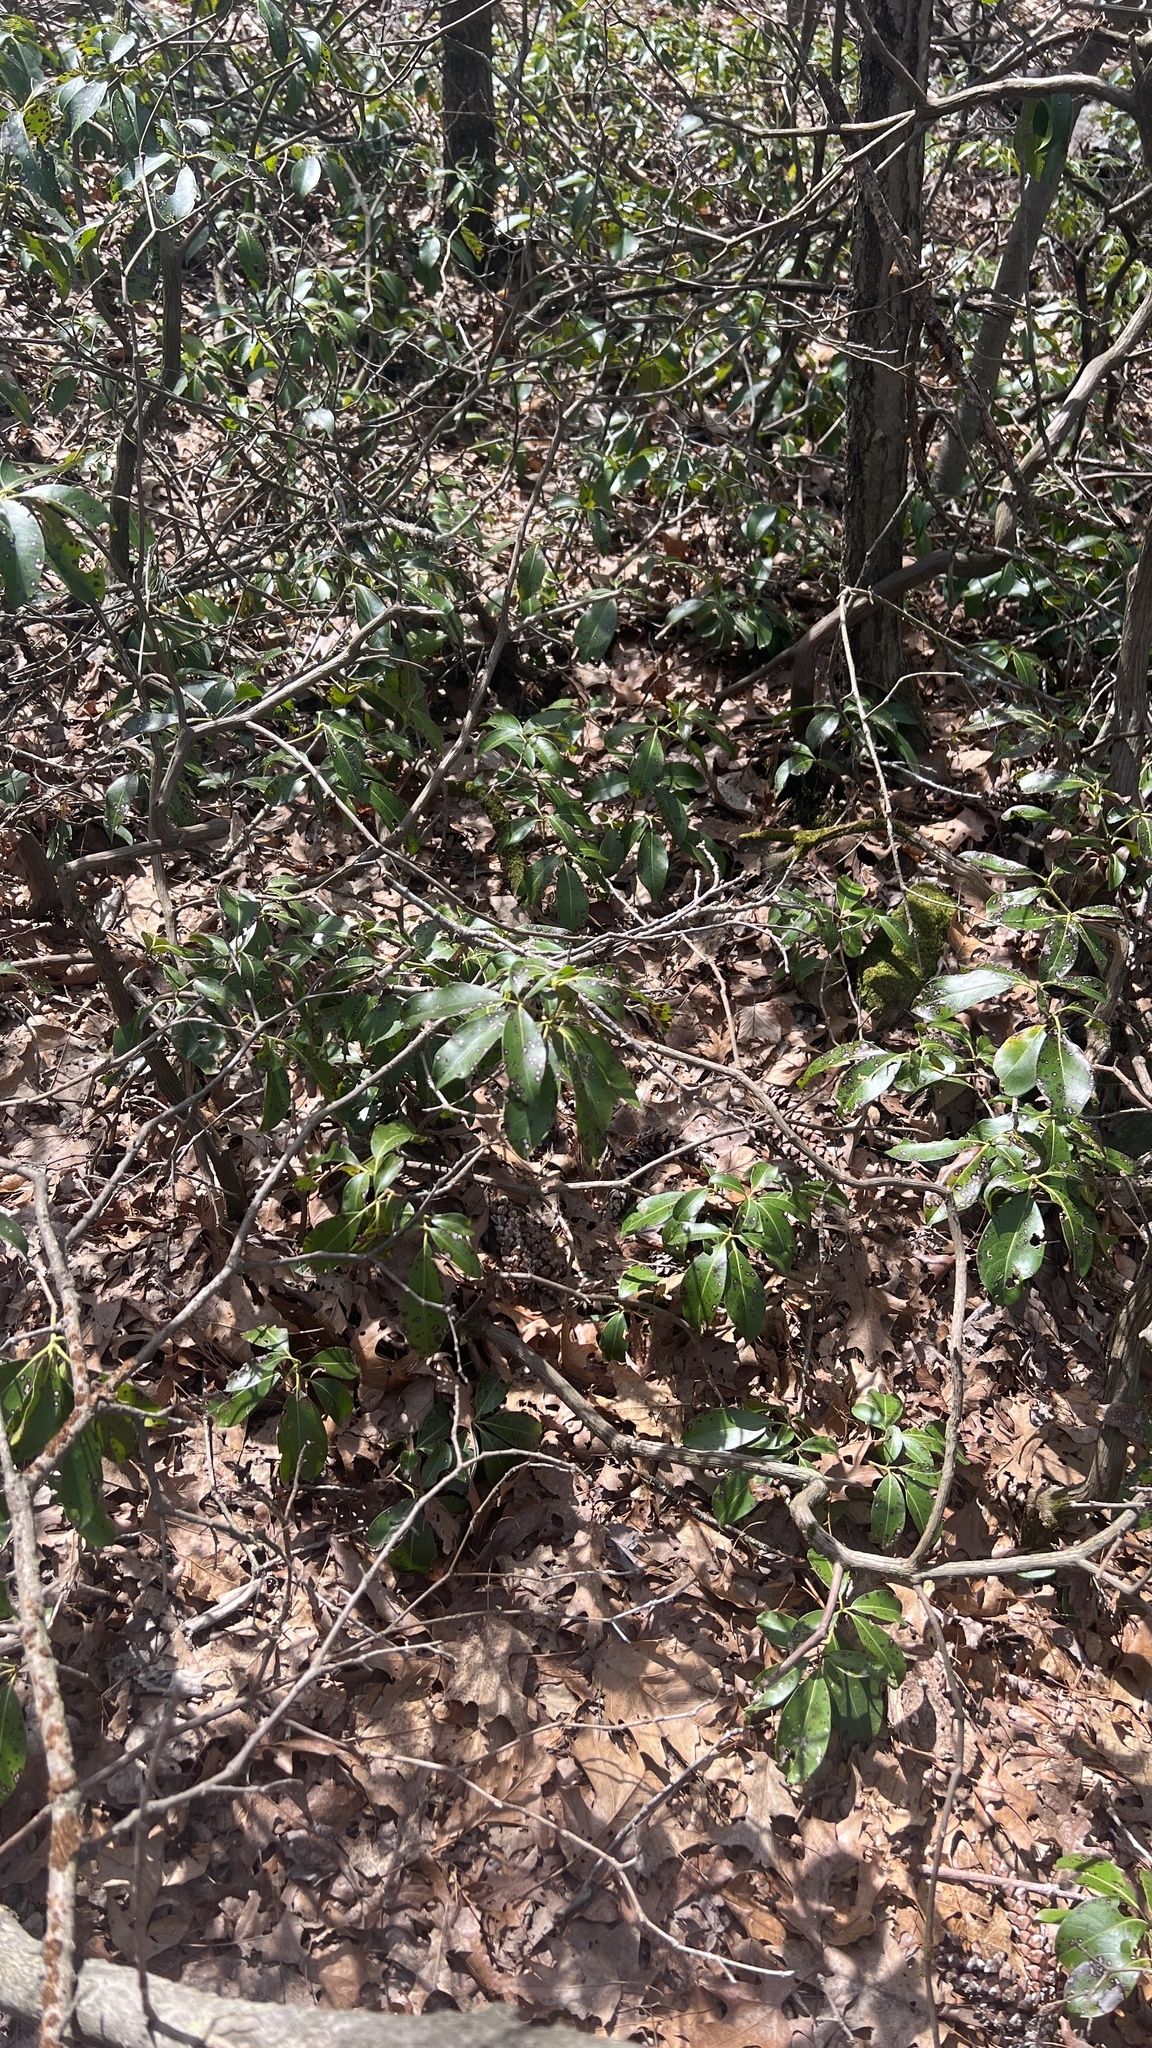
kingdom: Plantae
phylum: Tracheophyta
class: Magnoliopsida
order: Ericales
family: Ericaceae
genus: Kalmia
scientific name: Kalmia latifolia
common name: Mountain-laurel
